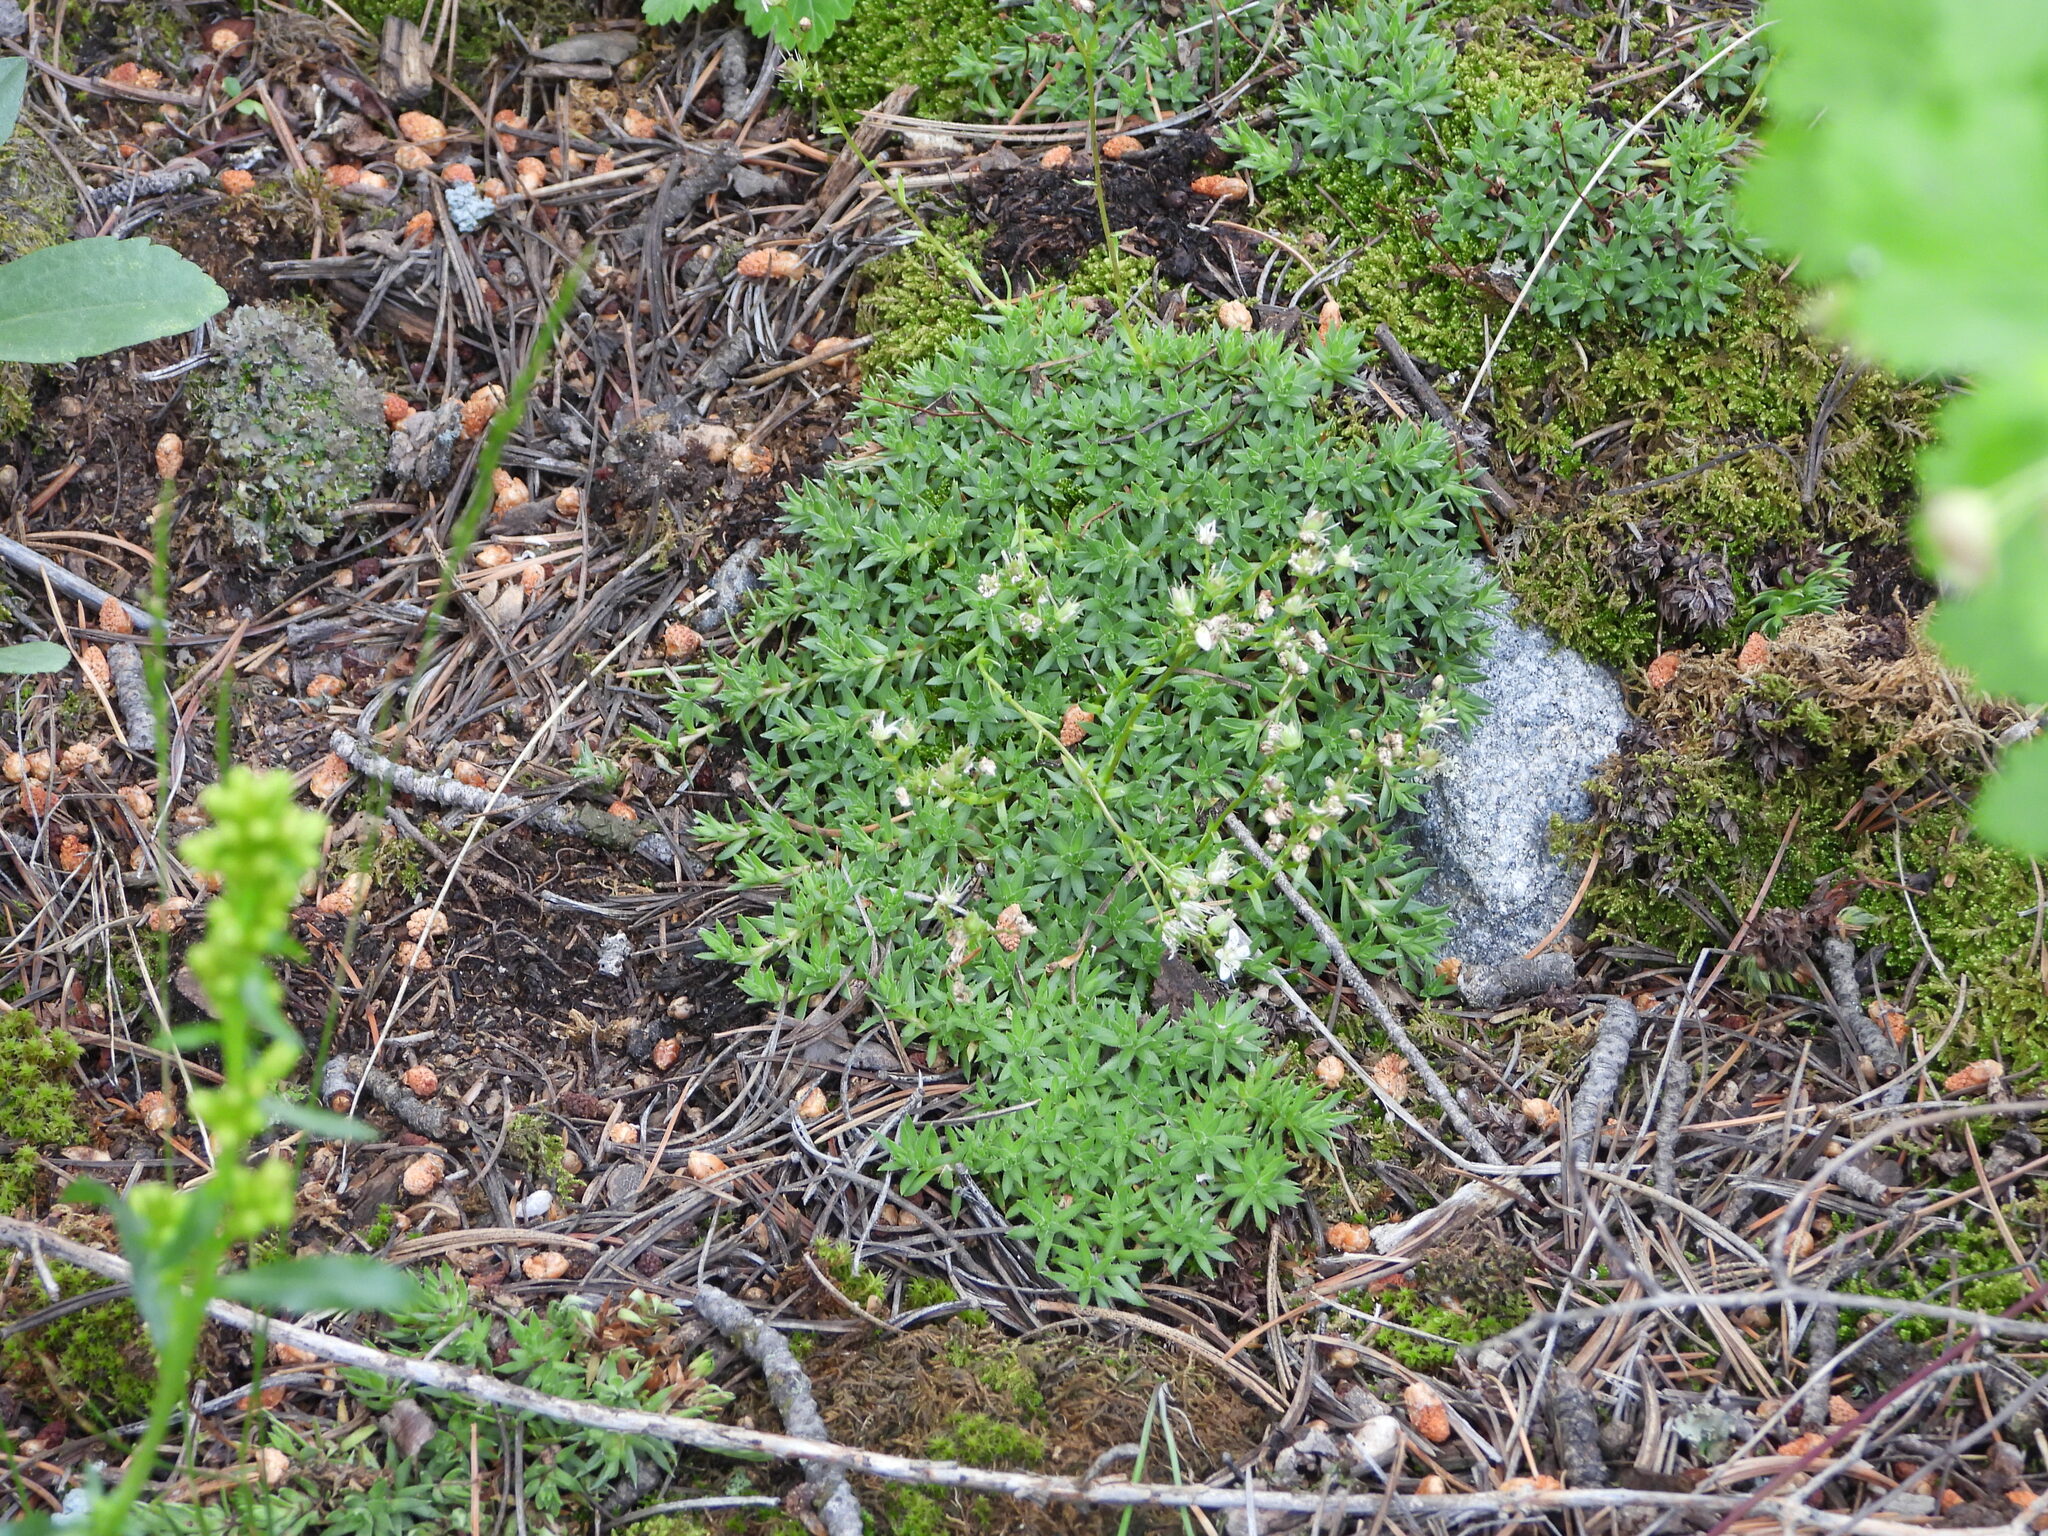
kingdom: Plantae
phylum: Tracheophyta
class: Magnoliopsida
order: Saxifragales
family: Saxifragaceae
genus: Saxifraga
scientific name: Saxifraga bronchialis
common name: Matted saxifrage
